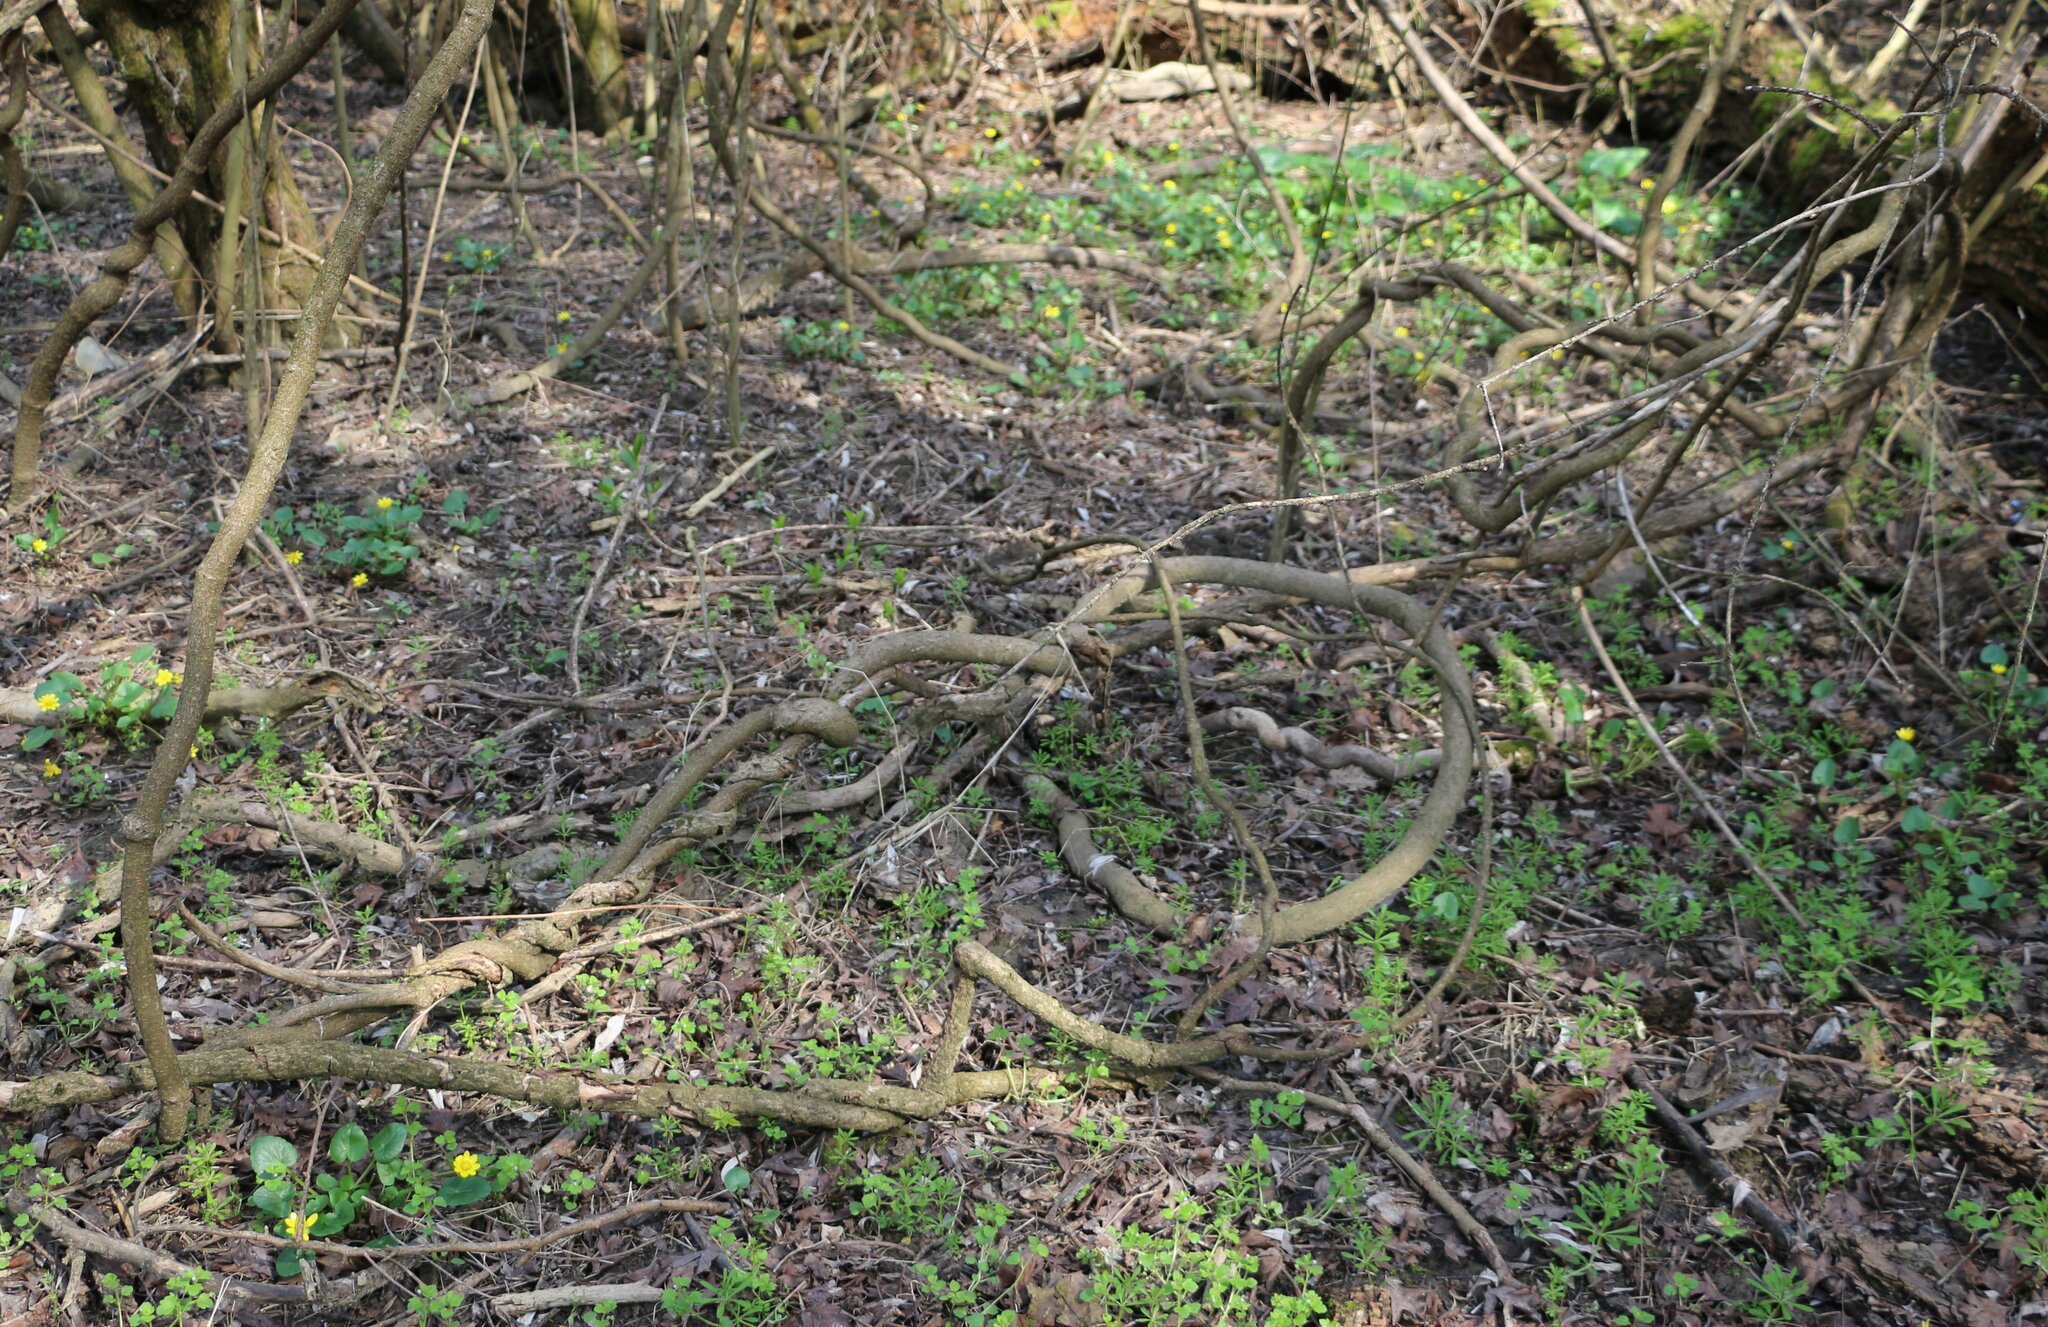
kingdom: Plantae
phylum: Tracheophyta
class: Magnoliopsida
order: Gentianales
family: Apocynaceae
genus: Periploca
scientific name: Periploca graeca
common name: Silkvine
